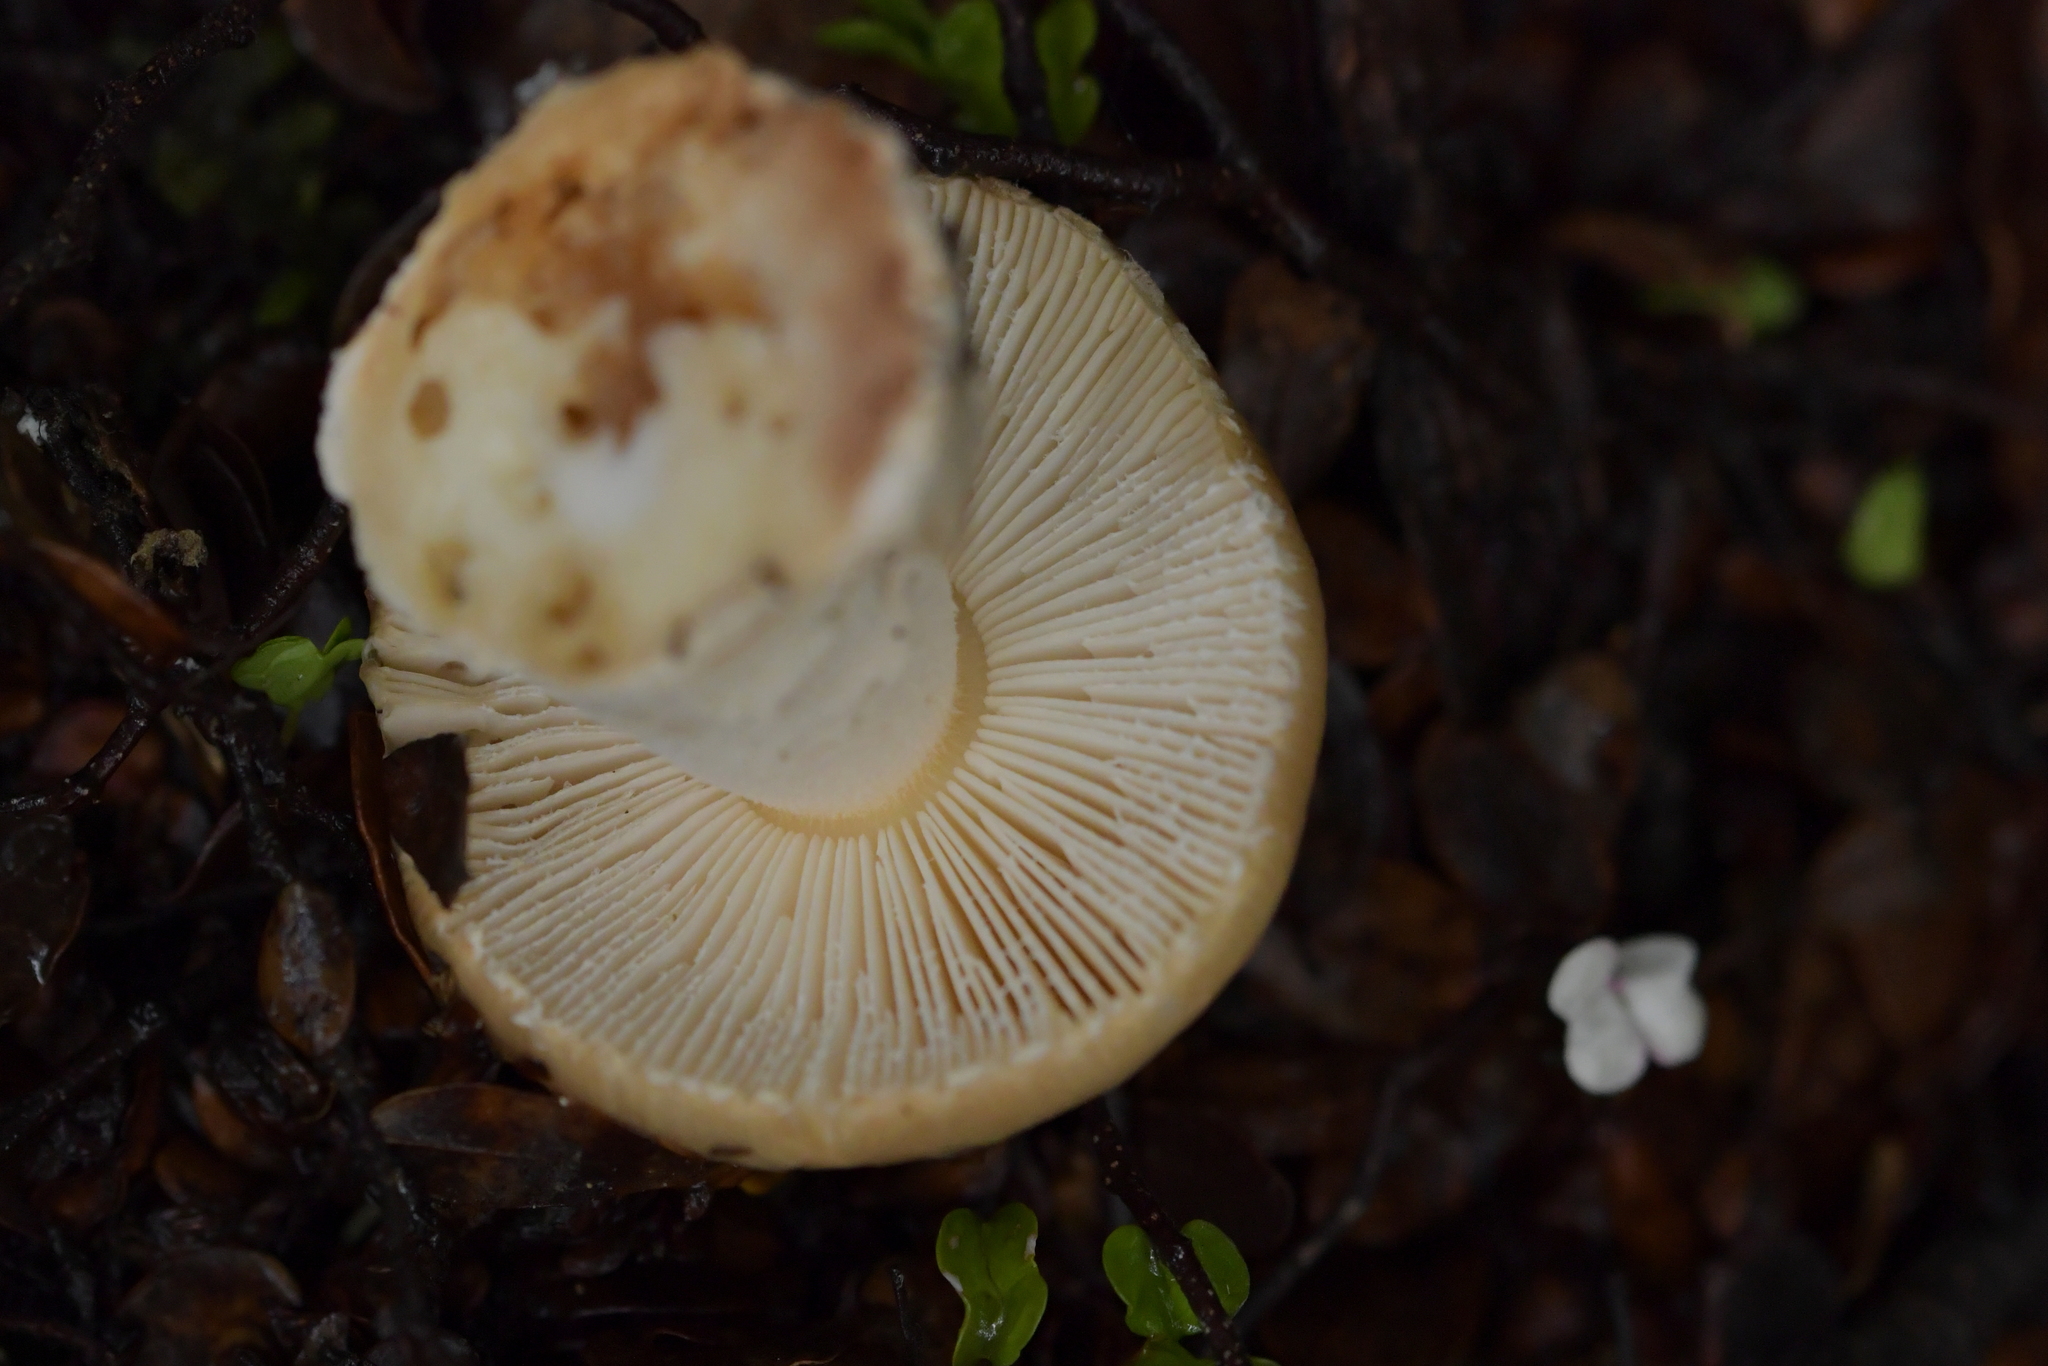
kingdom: Fungi
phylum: Basidiomycota
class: Agaricomycetes
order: Agaricales
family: Amanitaceae
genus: Amanita
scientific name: Amanita taiepa
